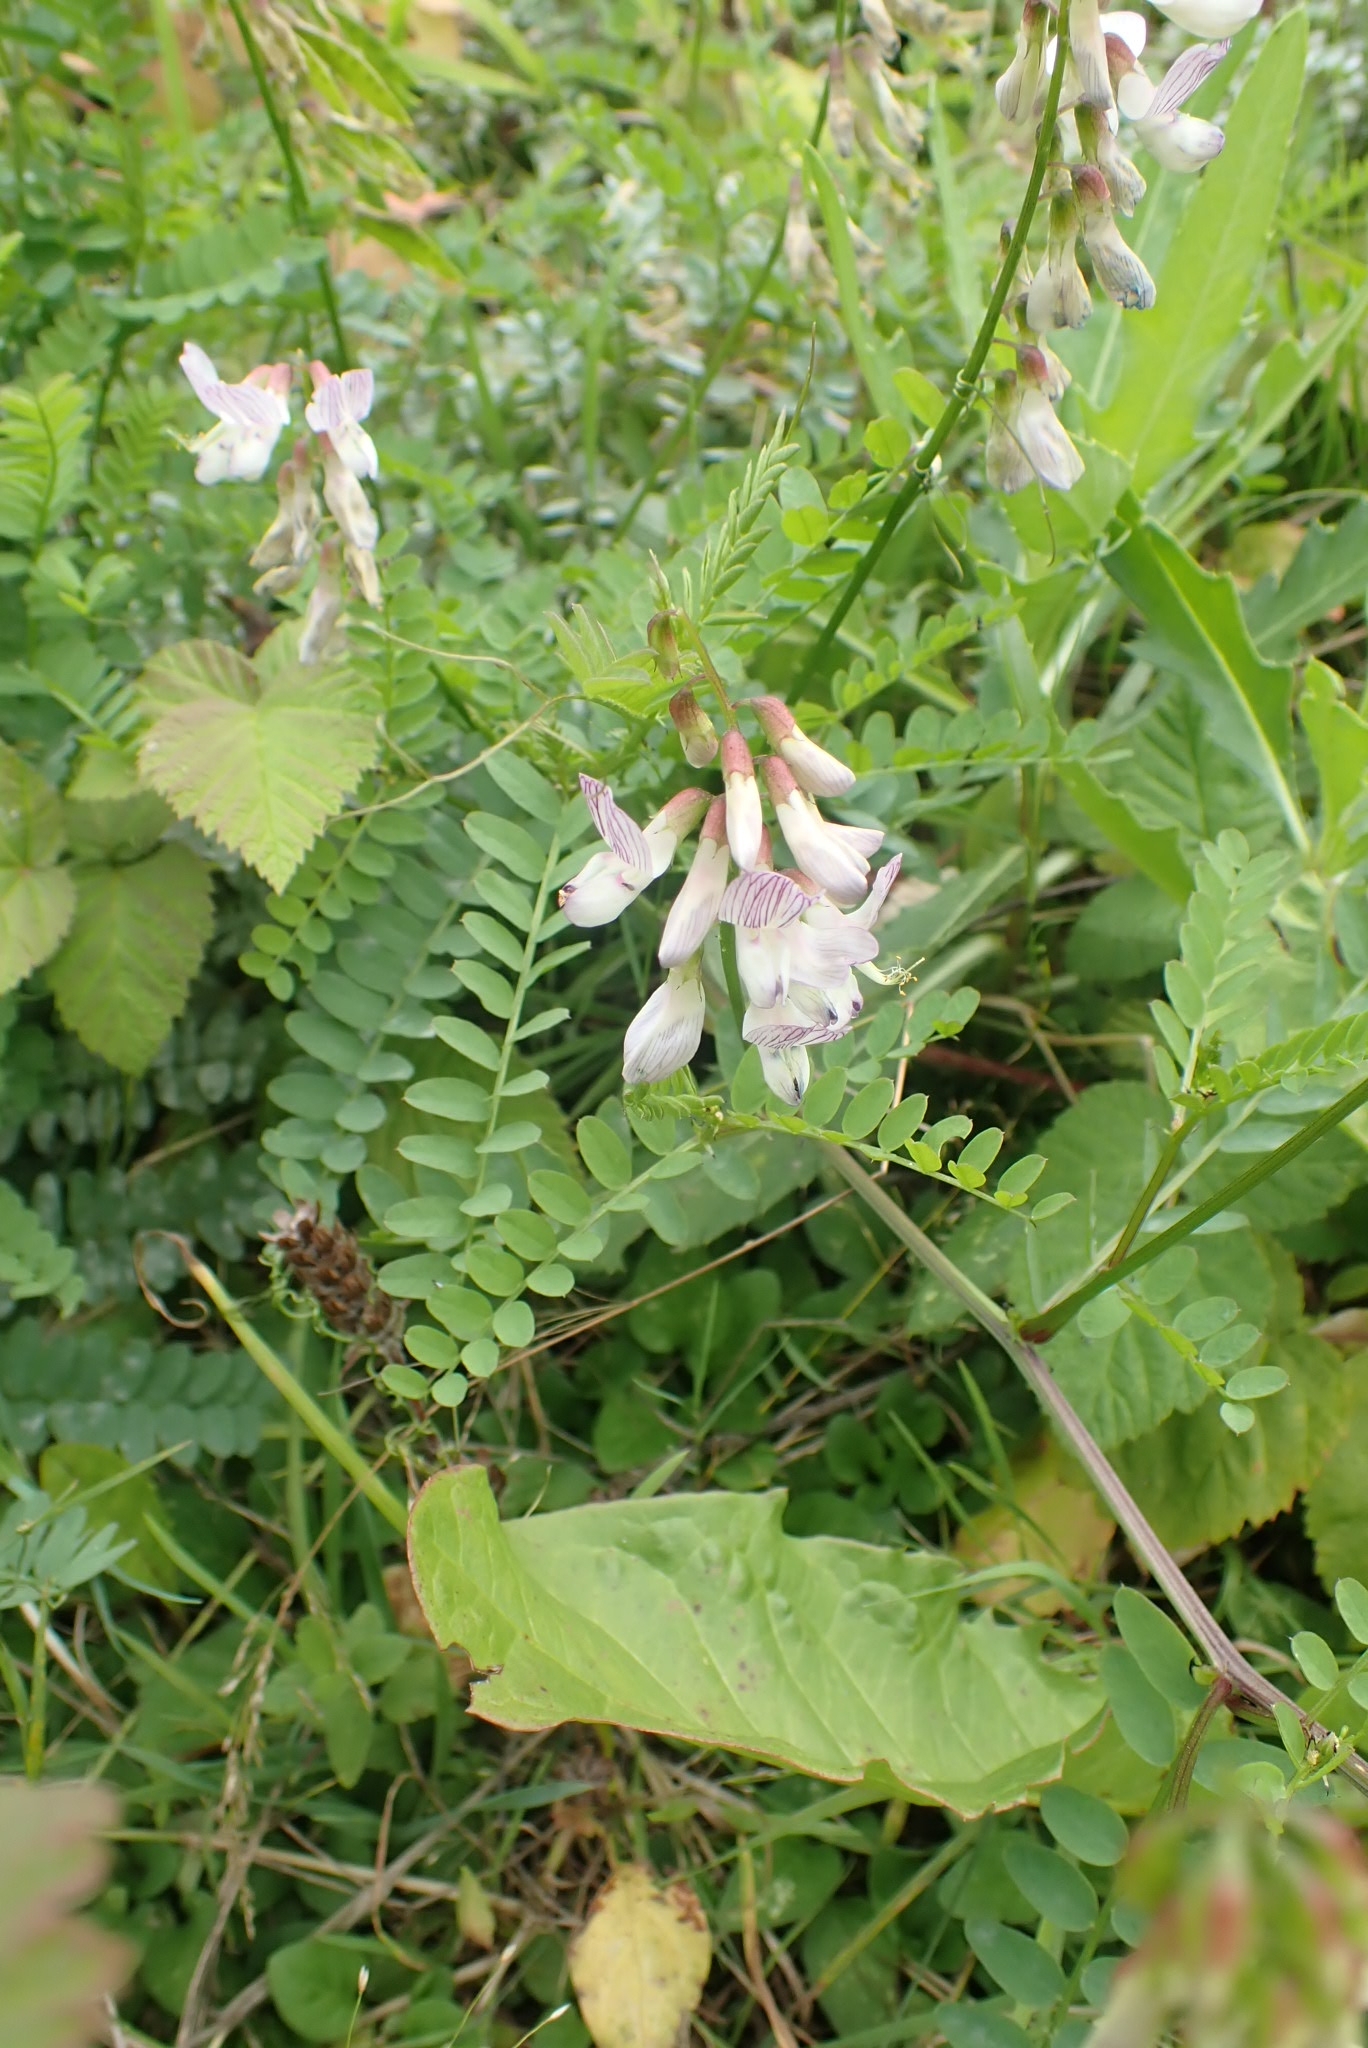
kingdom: Plantae
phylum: Tracheophyta
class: Magnoliopsida
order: Fabales
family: Fabaceae
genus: Vicia
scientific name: Vicia sylvatica
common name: Wood vetch
